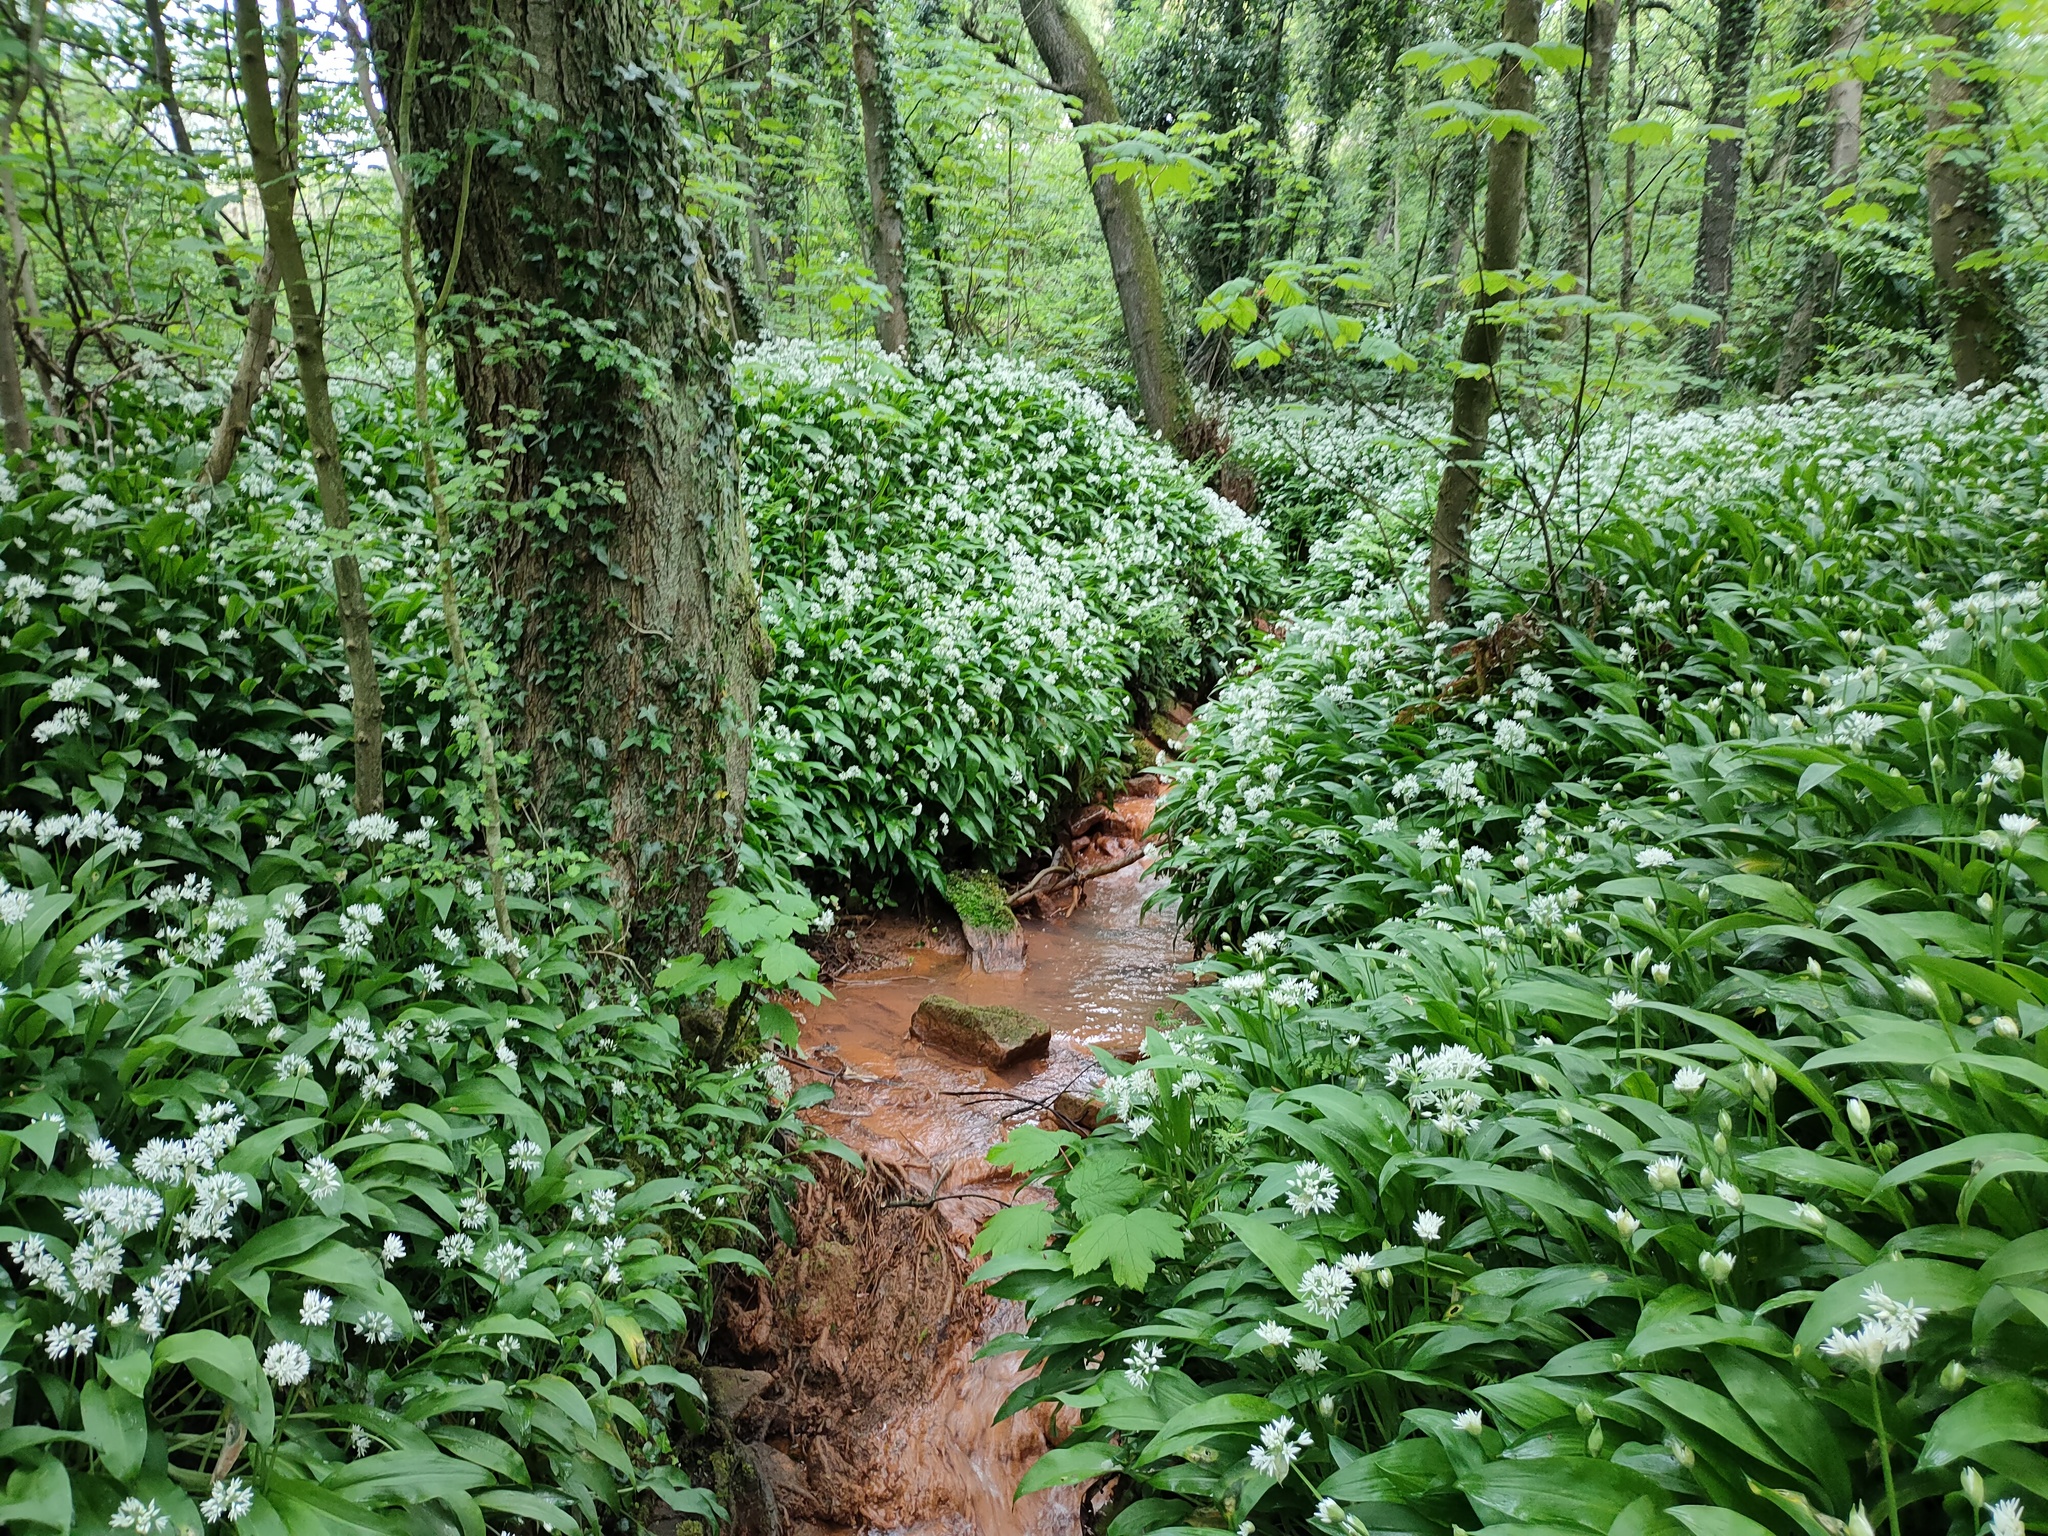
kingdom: Plantae
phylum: Tracheophyta
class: Liliopsida
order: Asparagales
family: Amaryllidaceae
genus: Allium
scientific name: Allium ursinum
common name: Ramsons
